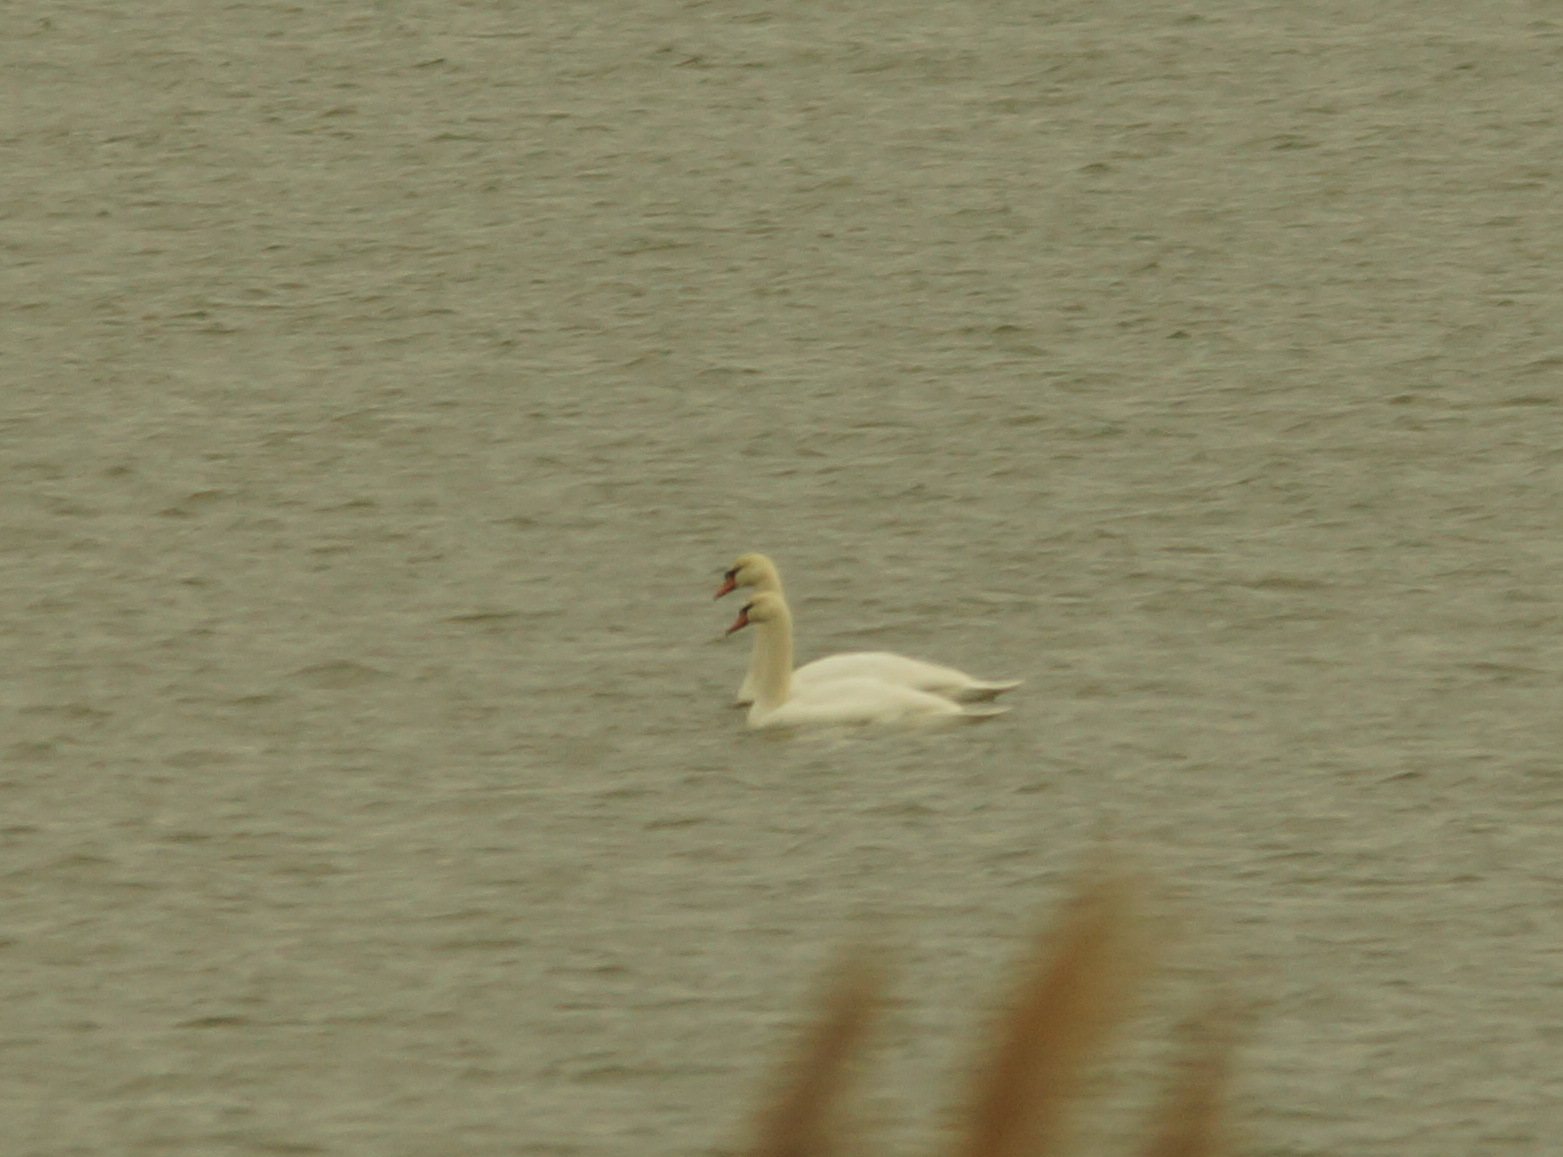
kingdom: Animalia
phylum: Chordata
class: Aves
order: Anseriformes
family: Anatidae
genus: Cygnus
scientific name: Cygnus olor
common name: Mute swan
